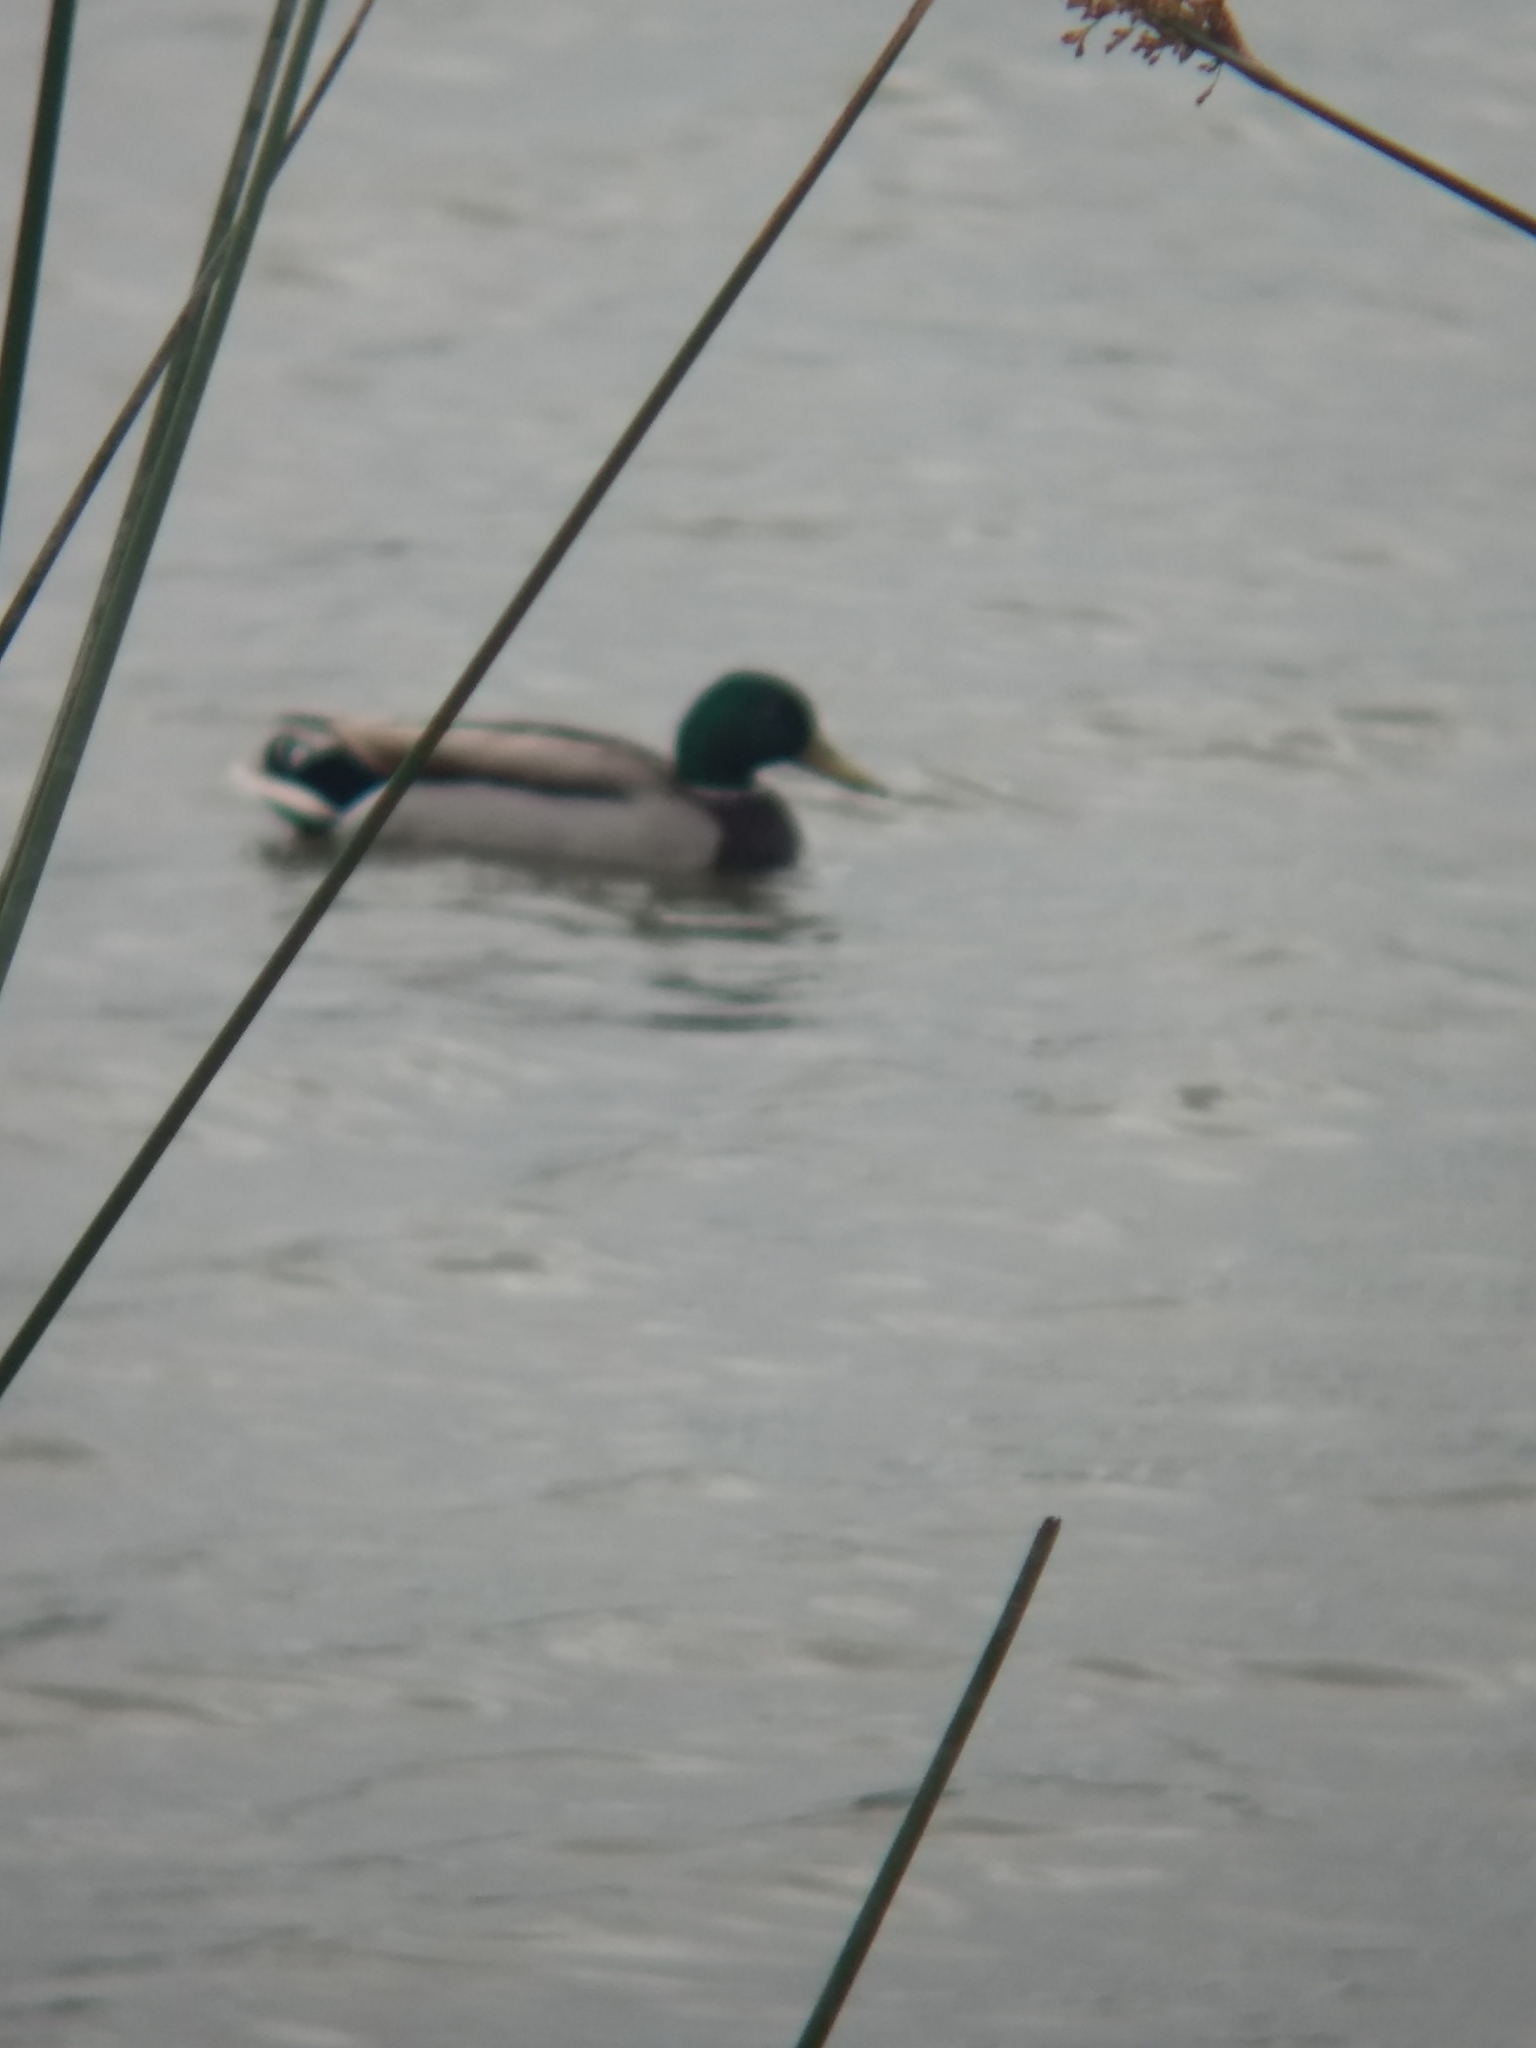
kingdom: Animalia
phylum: Chordata
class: Aves
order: Anseriformes
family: Anatidae
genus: Anas
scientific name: Anas platyrhynchos
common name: Mallard
